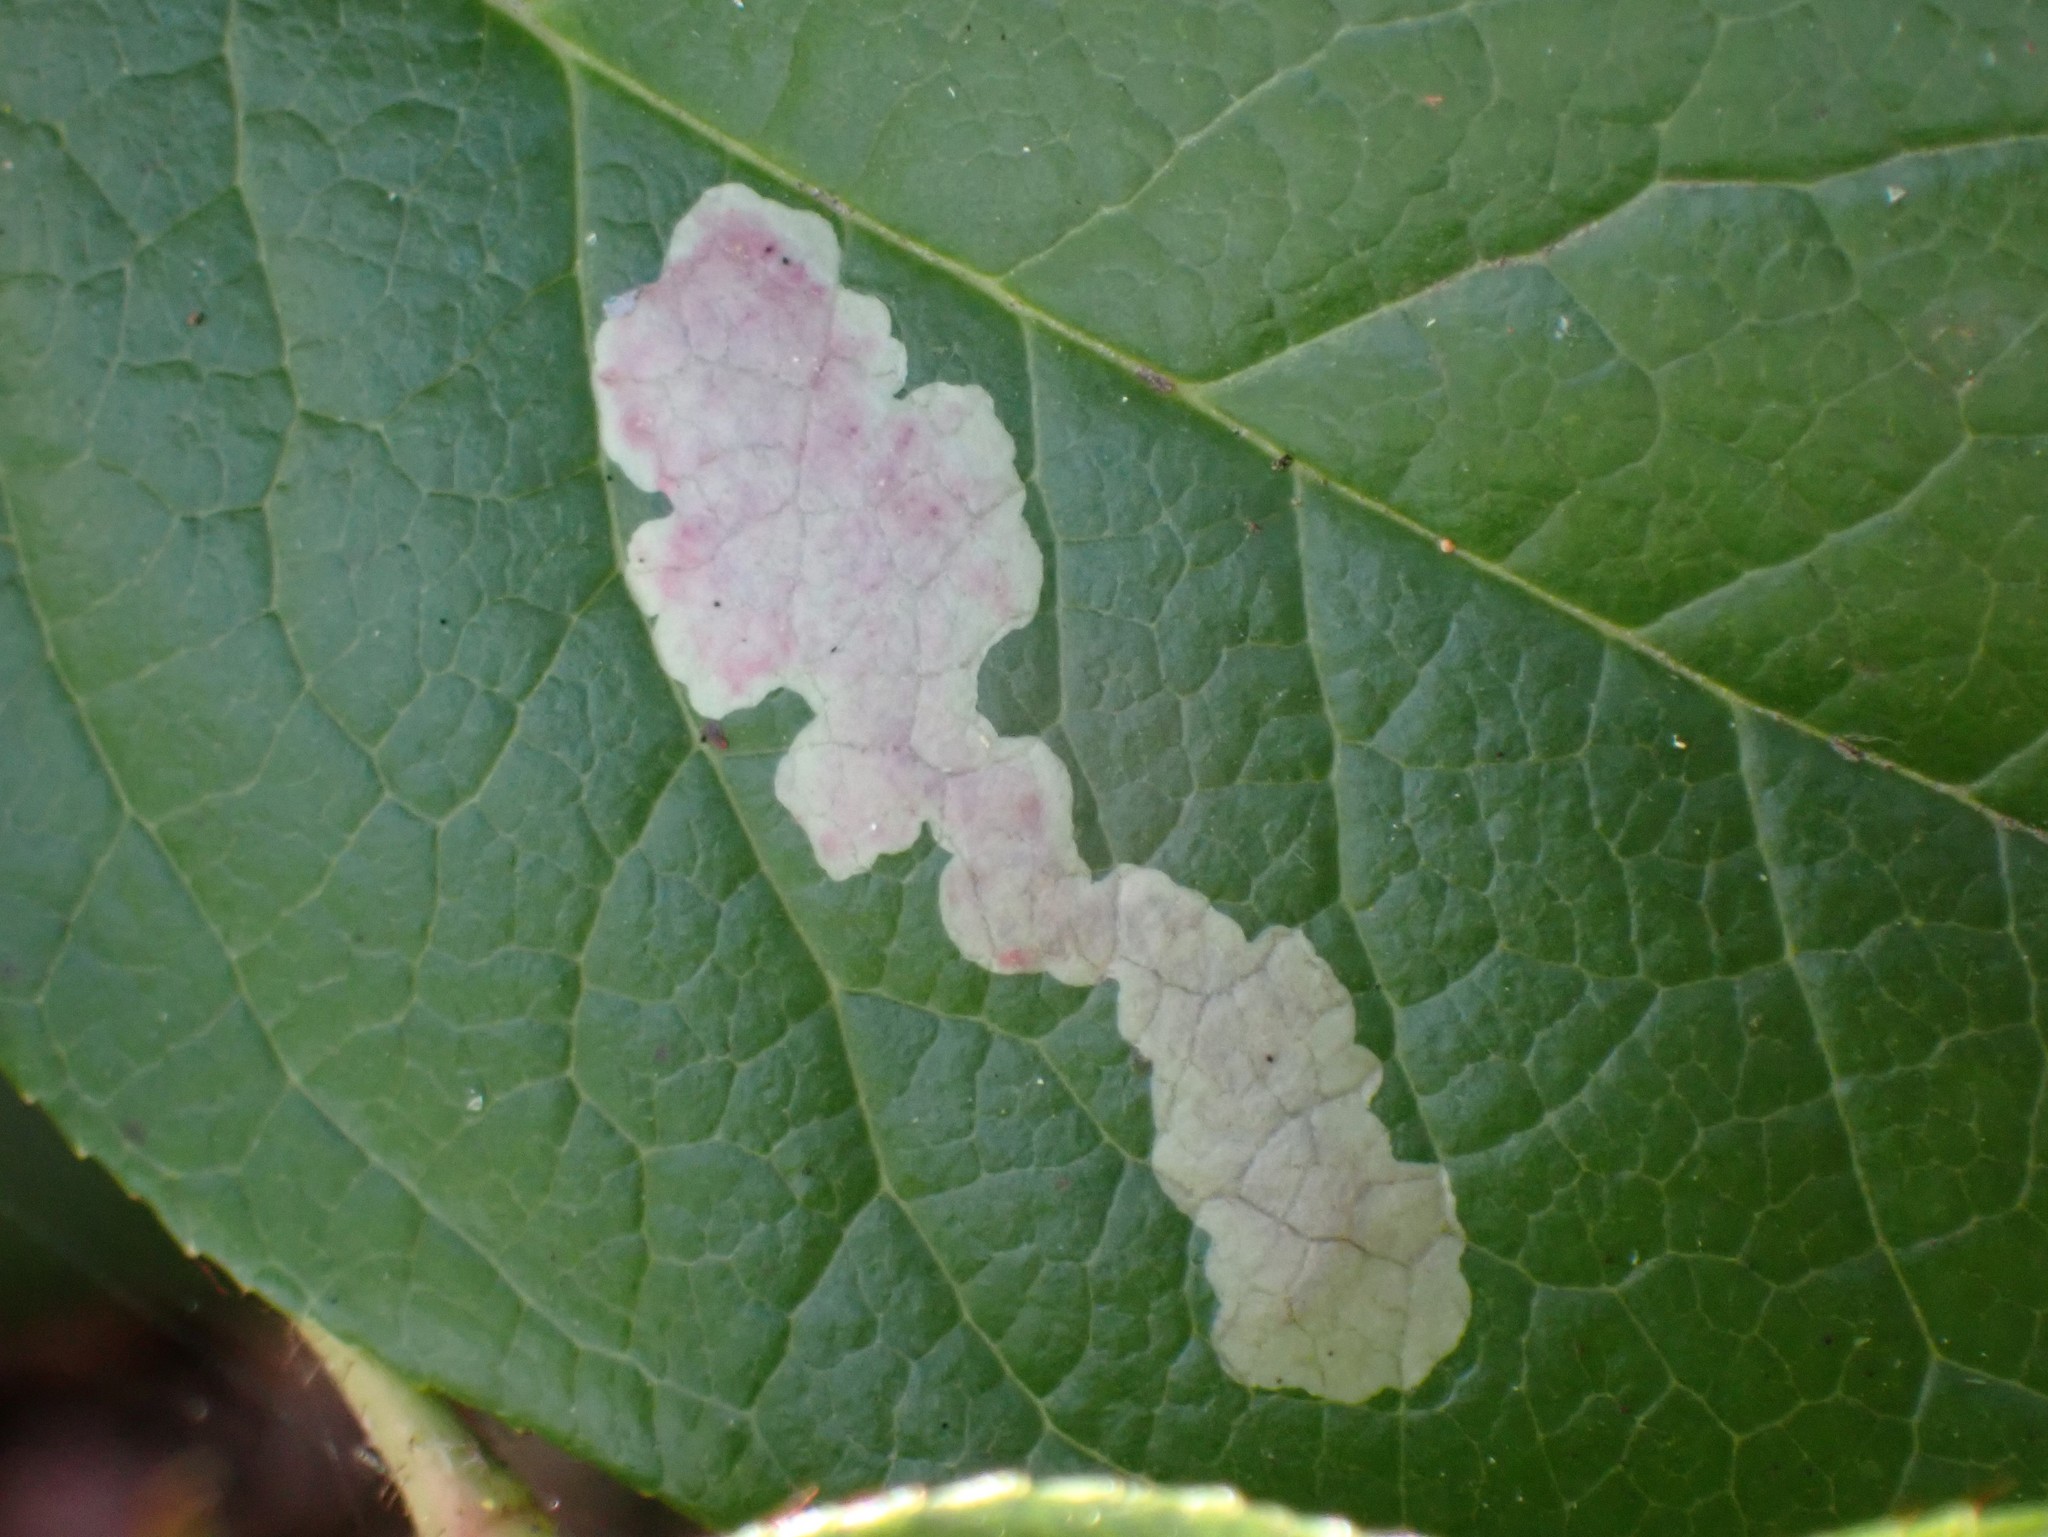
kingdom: Animalia
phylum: Arthropoda
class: Insecta
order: Lepidoptera
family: Gracillariidae
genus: Cameraria
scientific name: Cameraria gaultheriella
